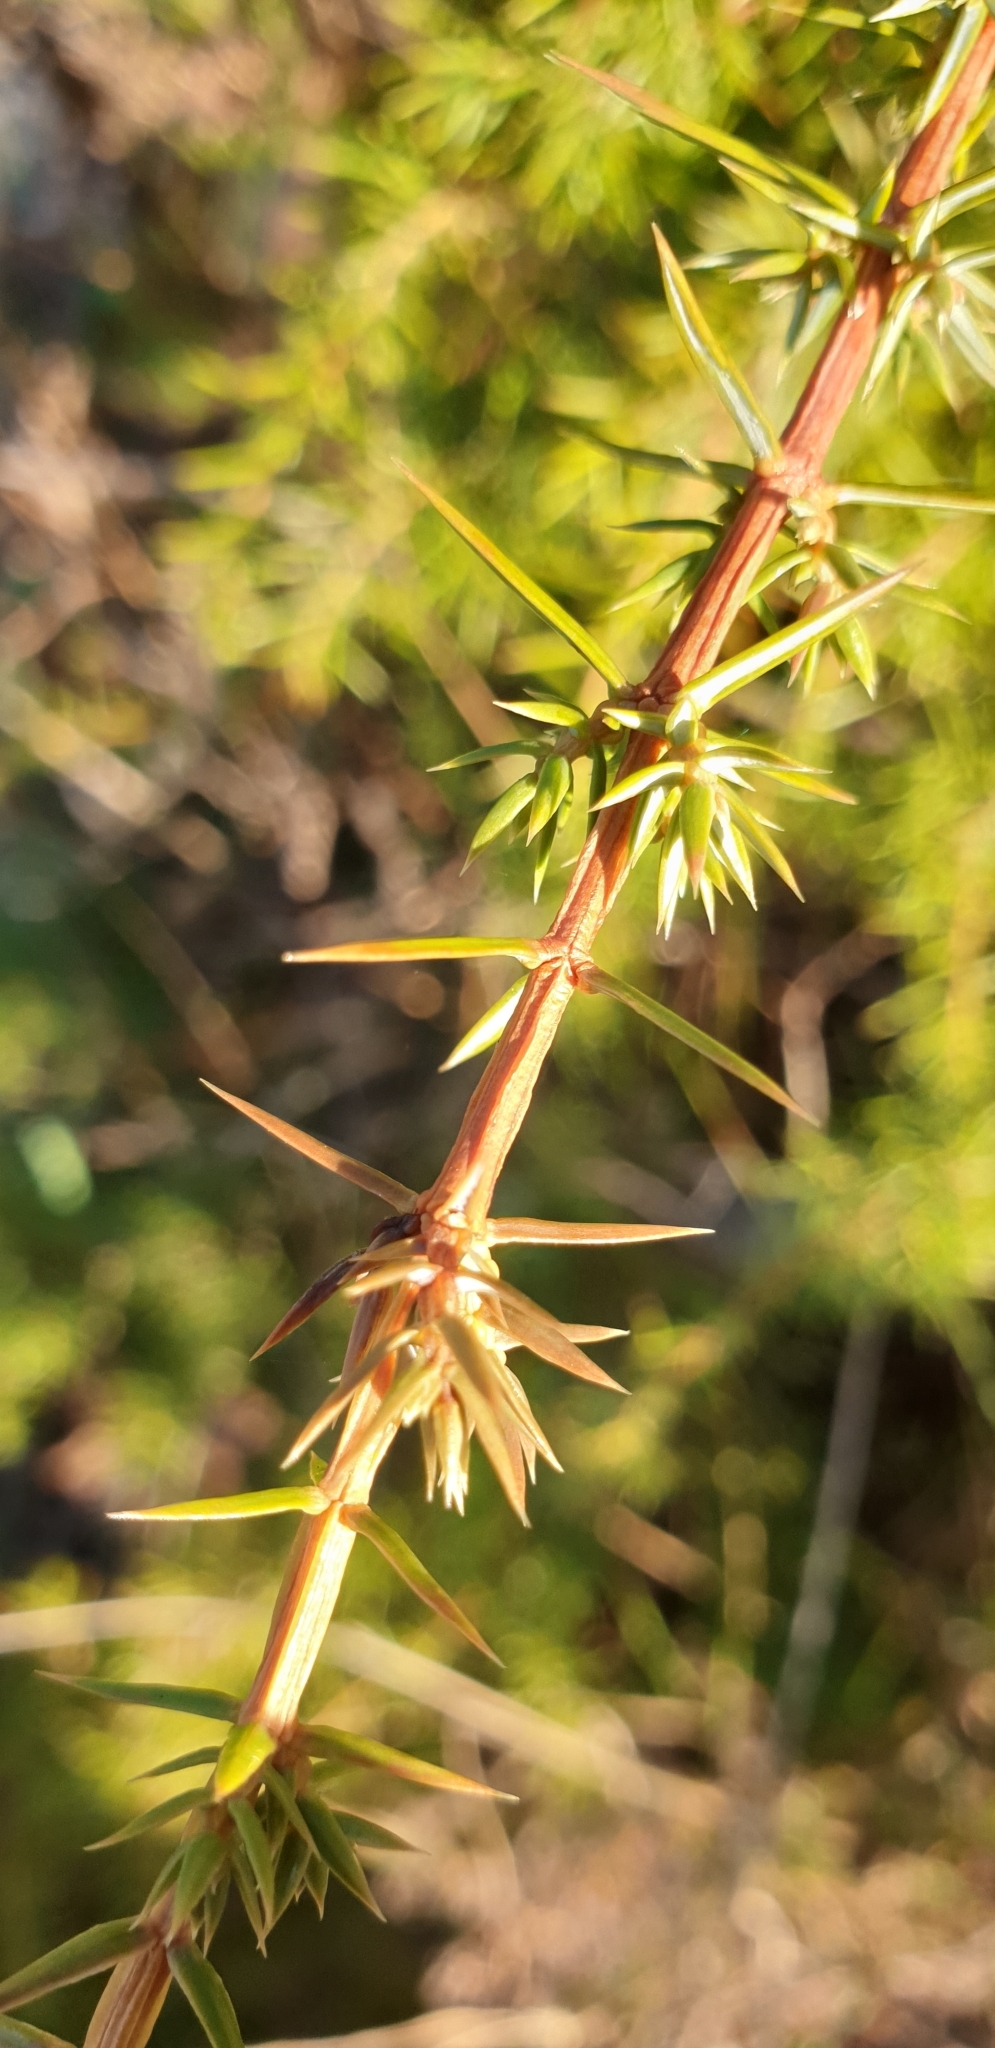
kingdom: Plantae
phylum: Tracheophyta
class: Pinopsida
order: Pinales
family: Cupressaceae
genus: Juniperus
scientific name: Juniperus communis
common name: Common juniper
